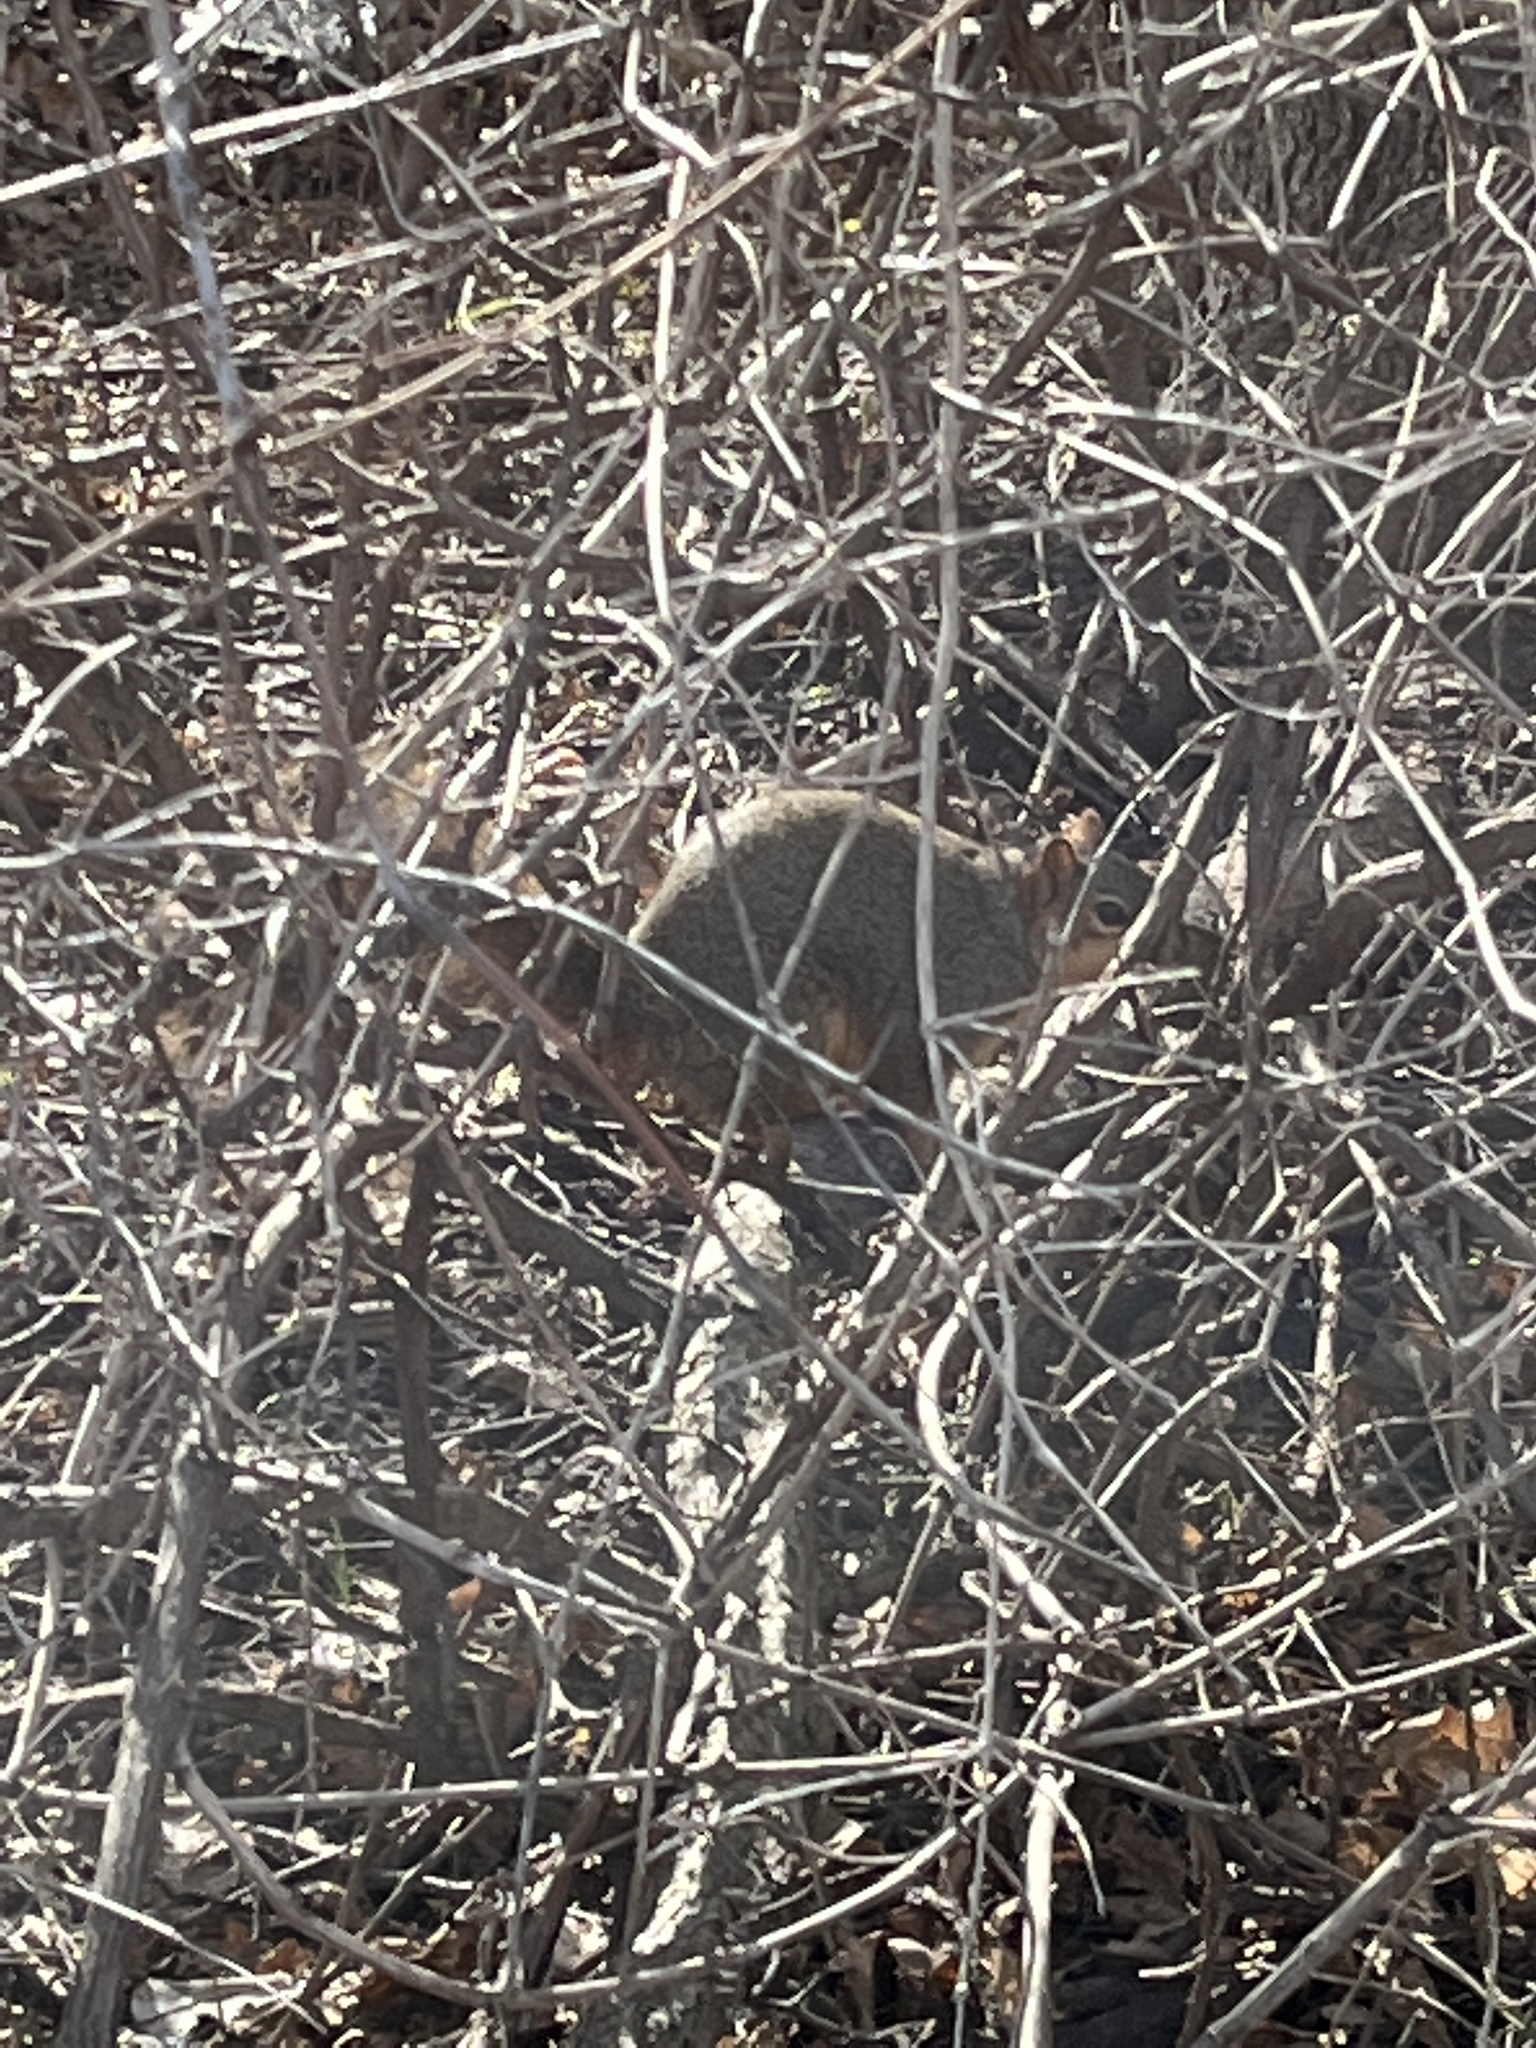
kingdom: Animalia
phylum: Chordata
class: Mammalia
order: Rodentia
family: Sciuridae
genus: Sciurus
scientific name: Sciurus niger
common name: Fox squirrel
